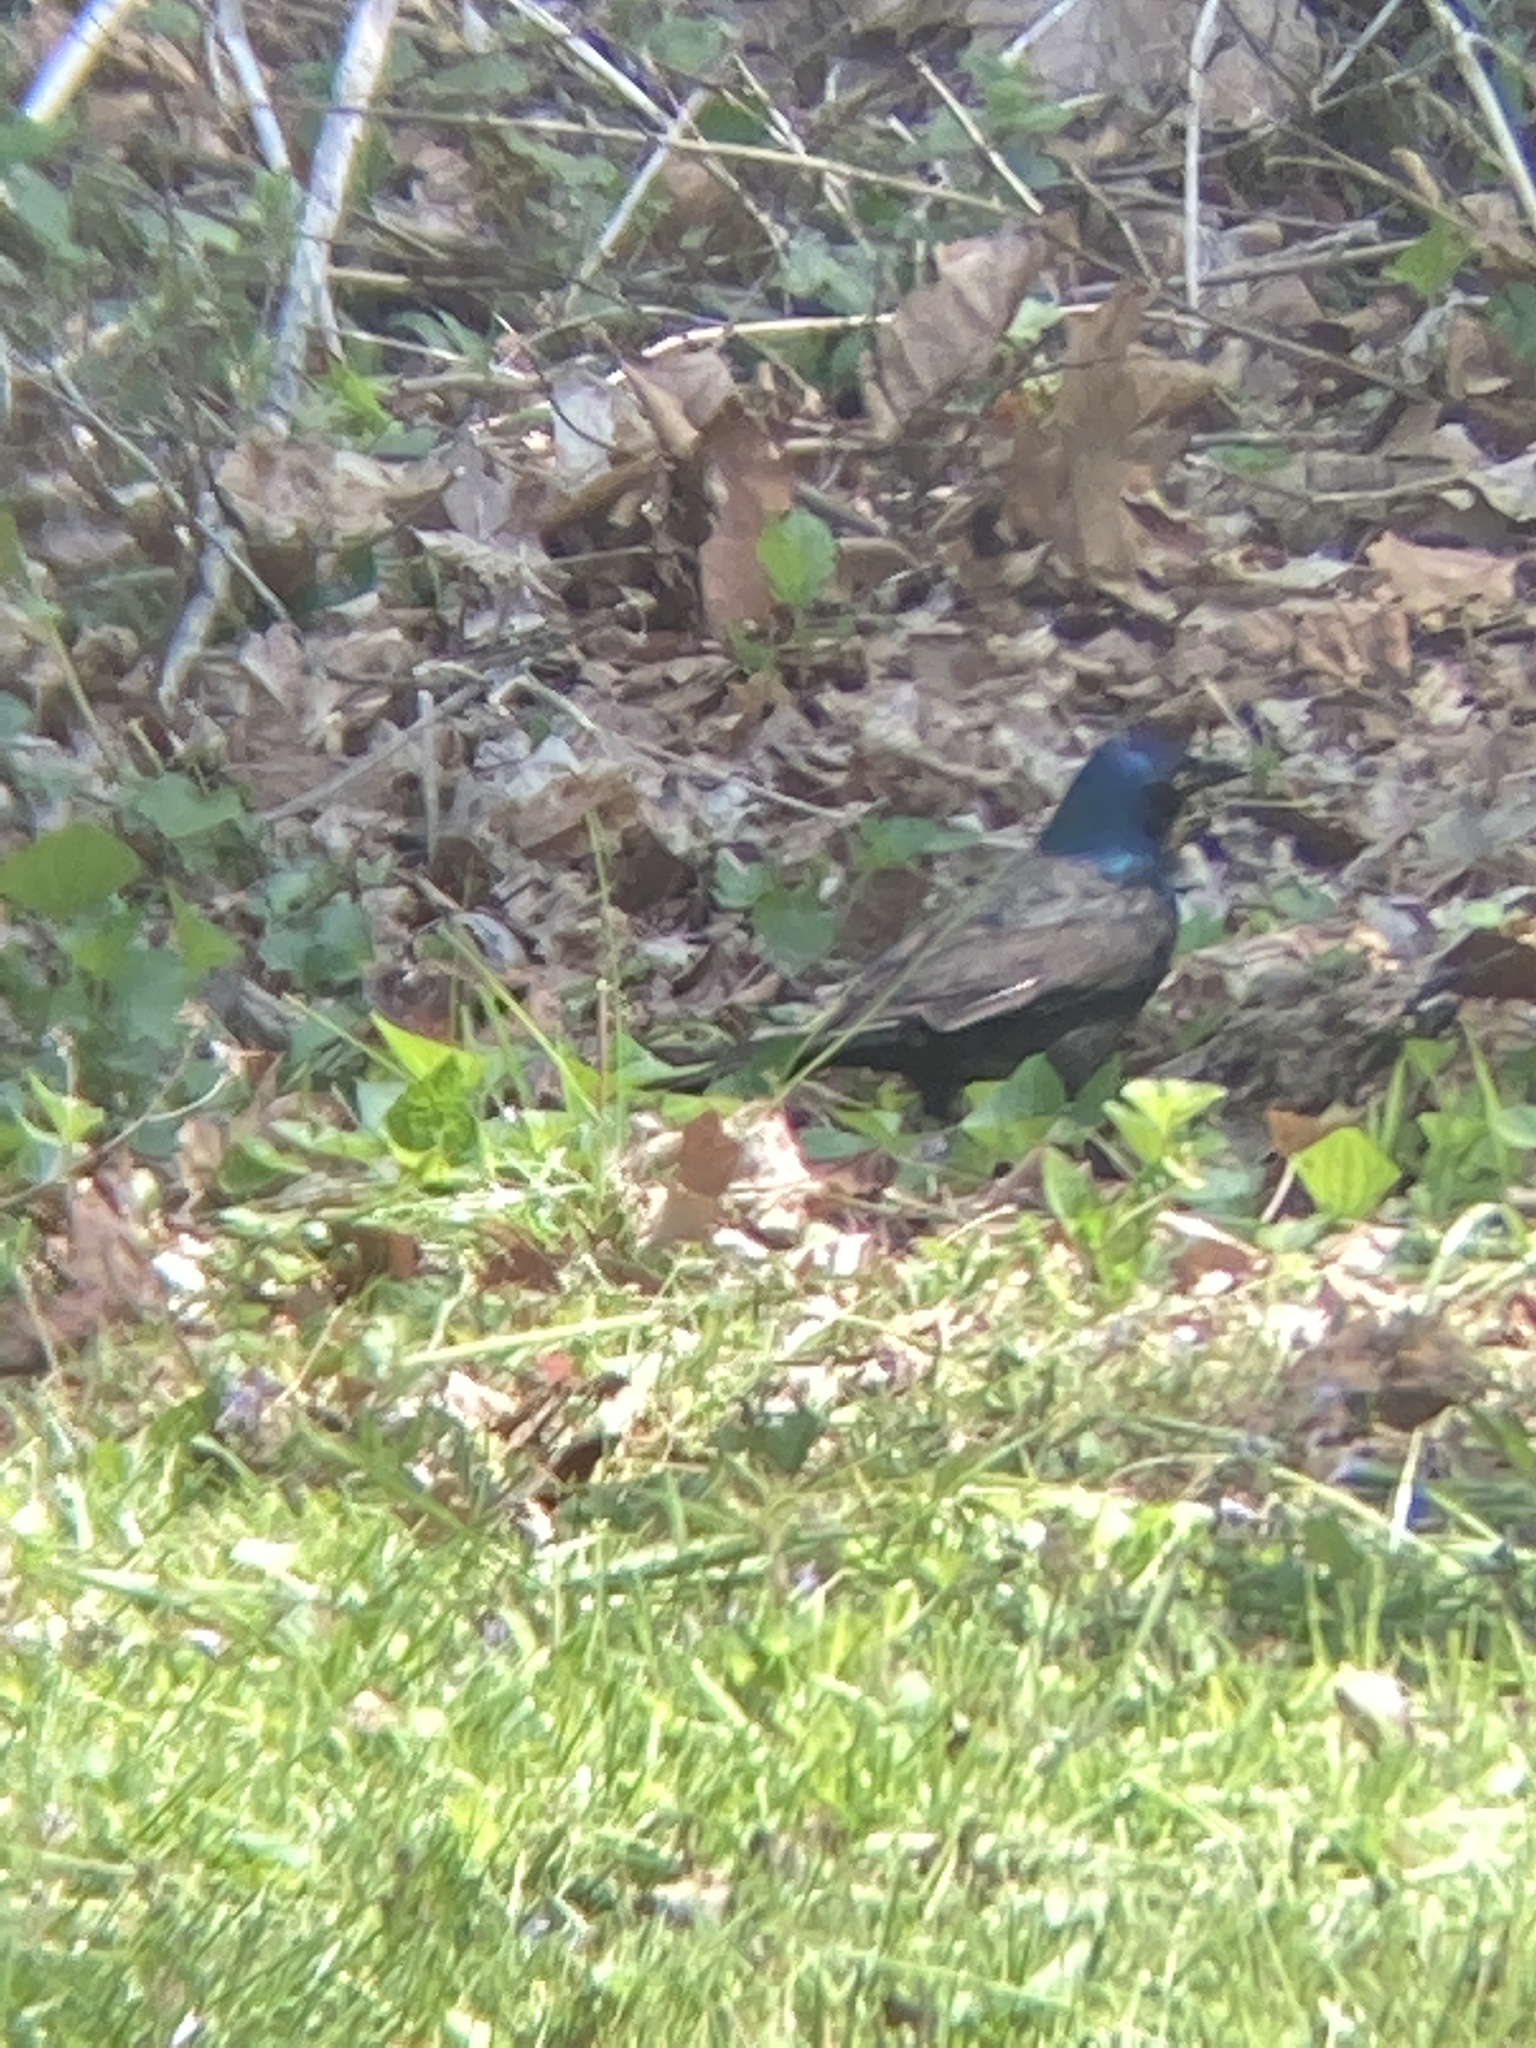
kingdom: Animalia
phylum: Chordata
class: Aves
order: Passeriformes
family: Icteridae
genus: Quiscalus
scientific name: Quiscalus quiscula
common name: Common grackle
